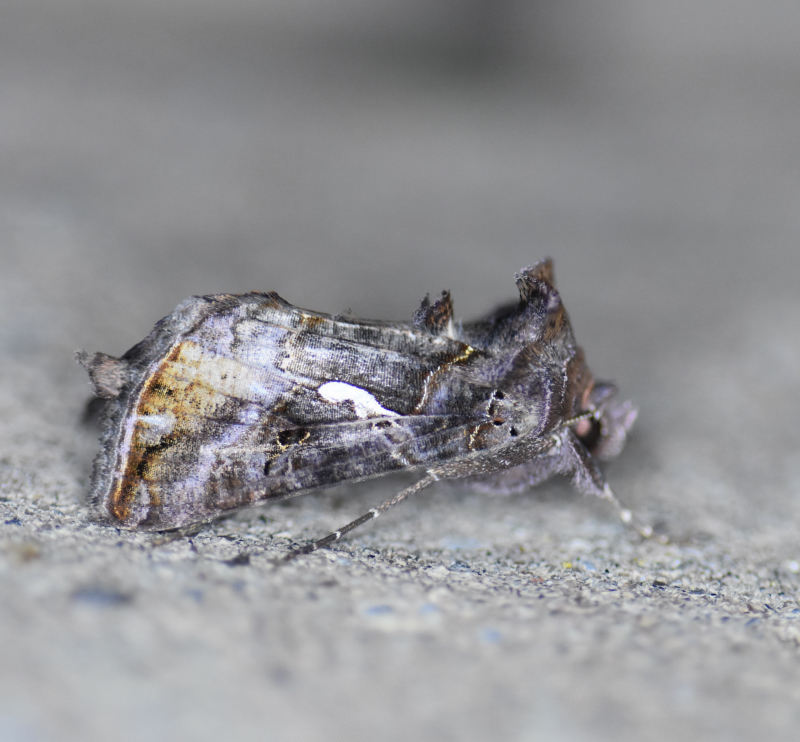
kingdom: Animalia
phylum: Arthropoda
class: Insecta
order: Lepidoptera
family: Noctuidae
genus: Autographa
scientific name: Autographa precationis
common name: Common looper moth
